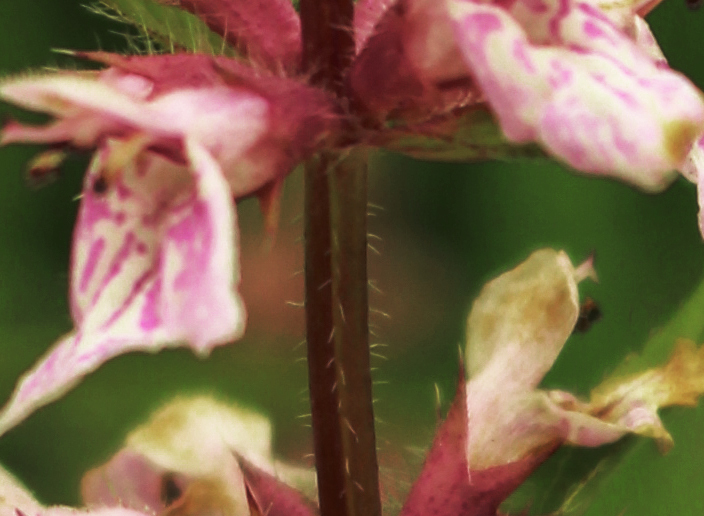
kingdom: Plantae
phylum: Tracheophyta
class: Magnoliopsida
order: Lamiales
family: Lamiaceae
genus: Stachys
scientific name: Stachys hispida
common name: Hispid hedge-nettle
